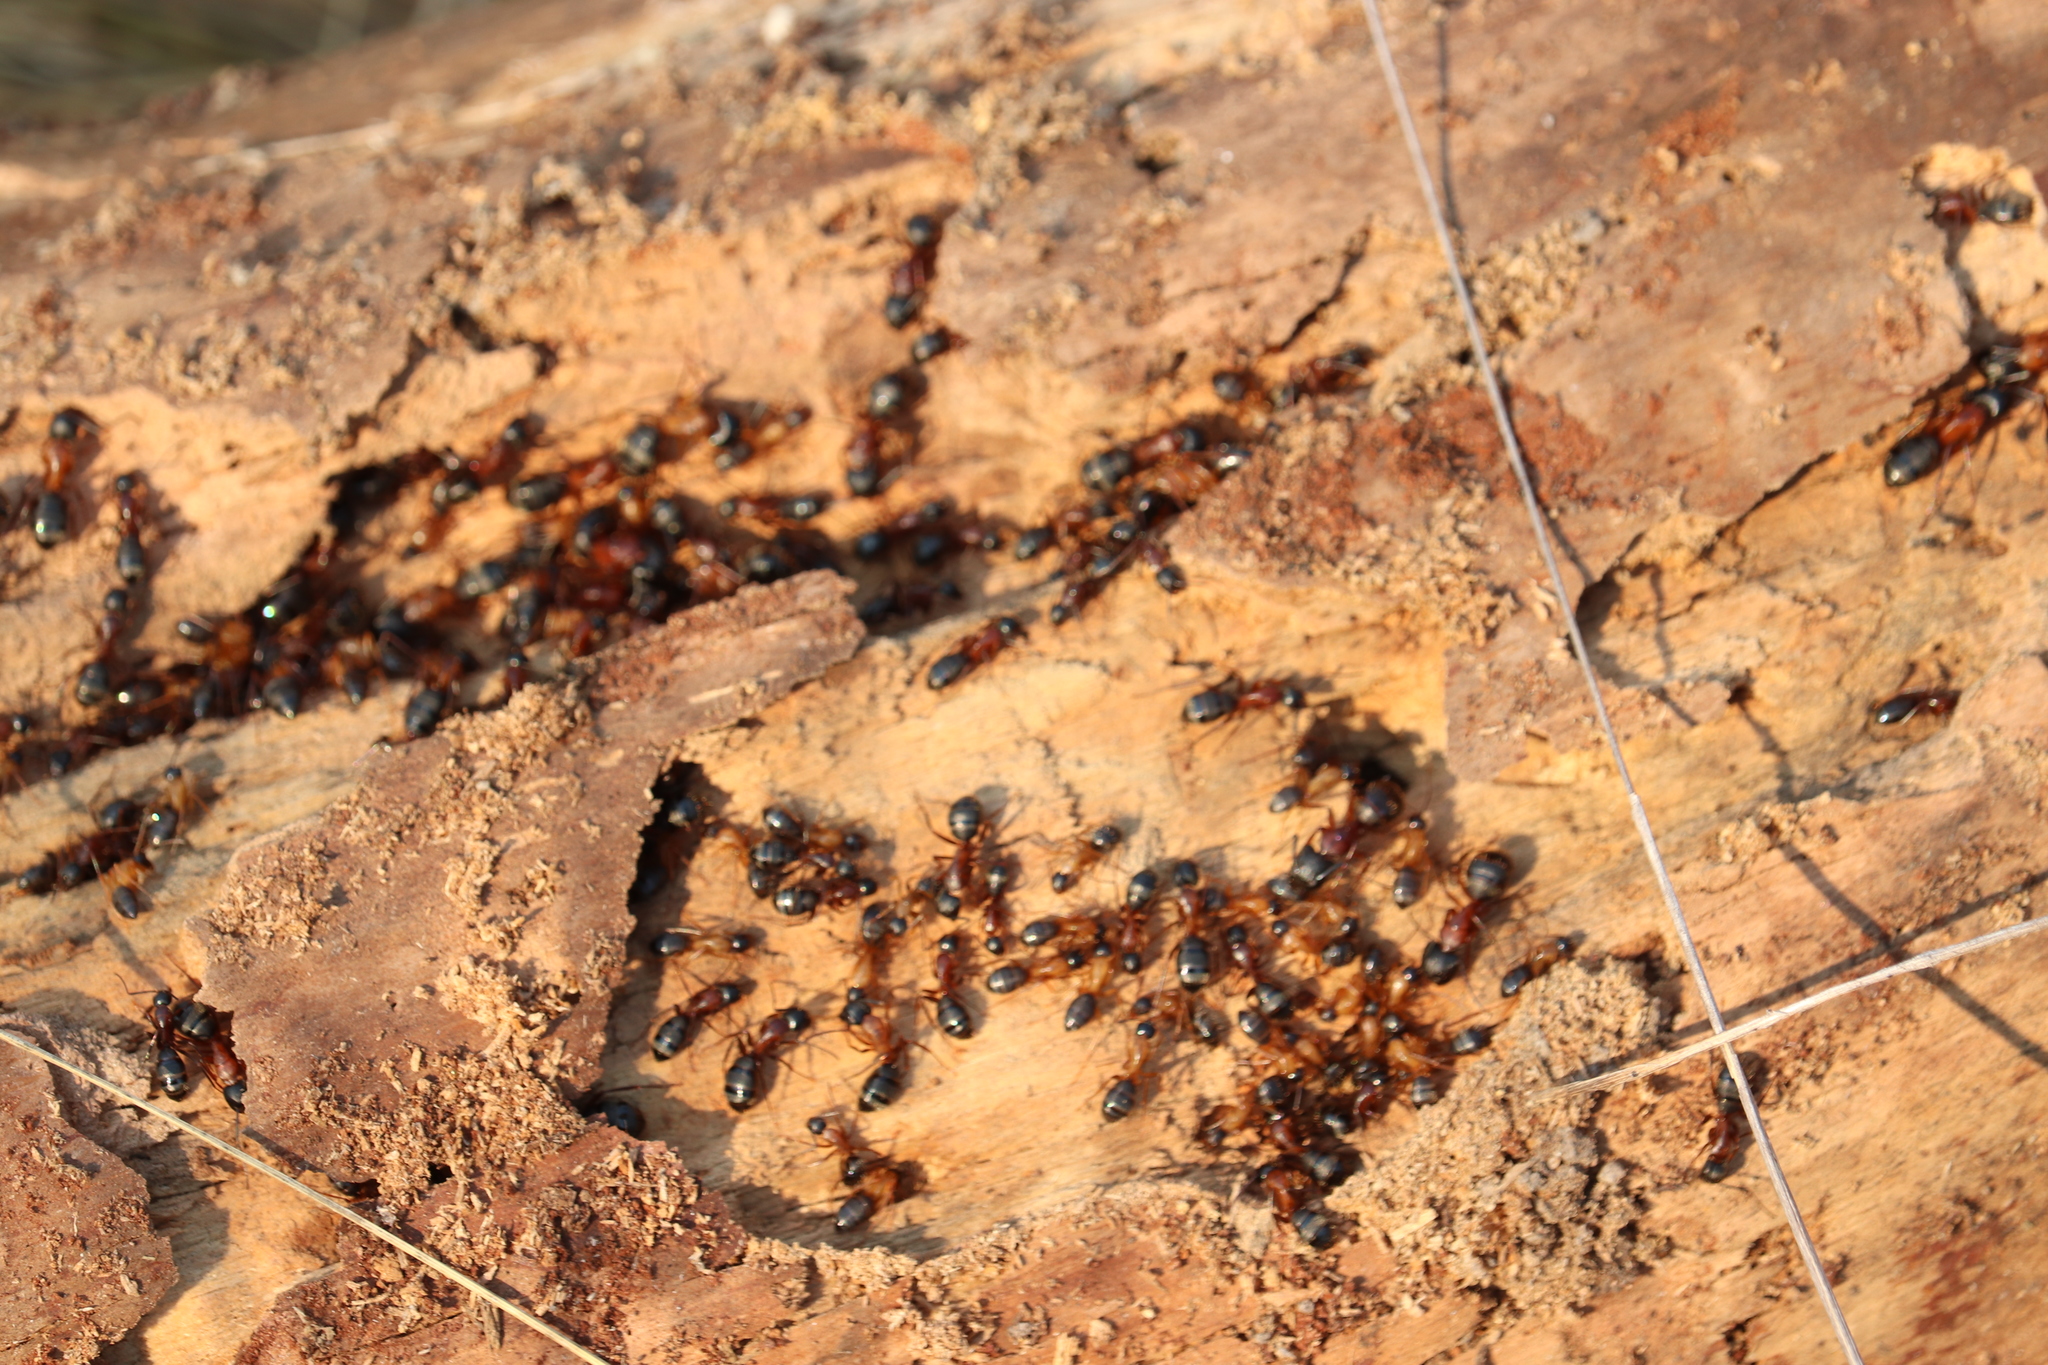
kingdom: Animalia
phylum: Arthropoda
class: Insecta
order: Hymenoptera
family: Formicidae
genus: Camponotus
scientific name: Camponotus vicinus
